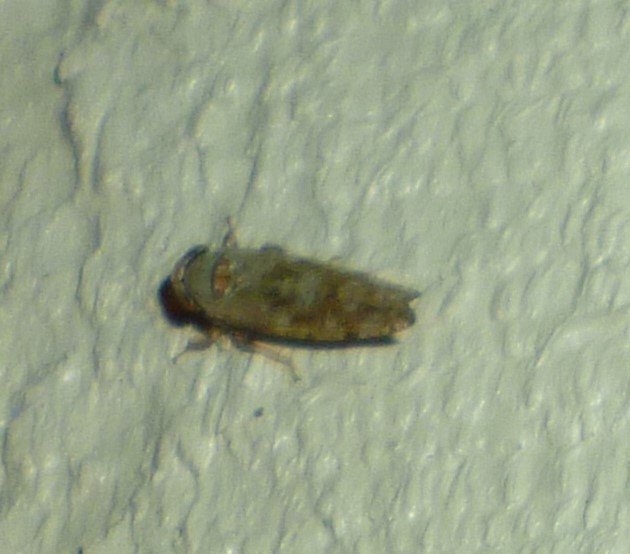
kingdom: Animalia
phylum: Arthropoda
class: Insecta
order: Hemiptera
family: Cicadellidae
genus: Orientus
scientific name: Orientus ishidae
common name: Japanese leafhopper
